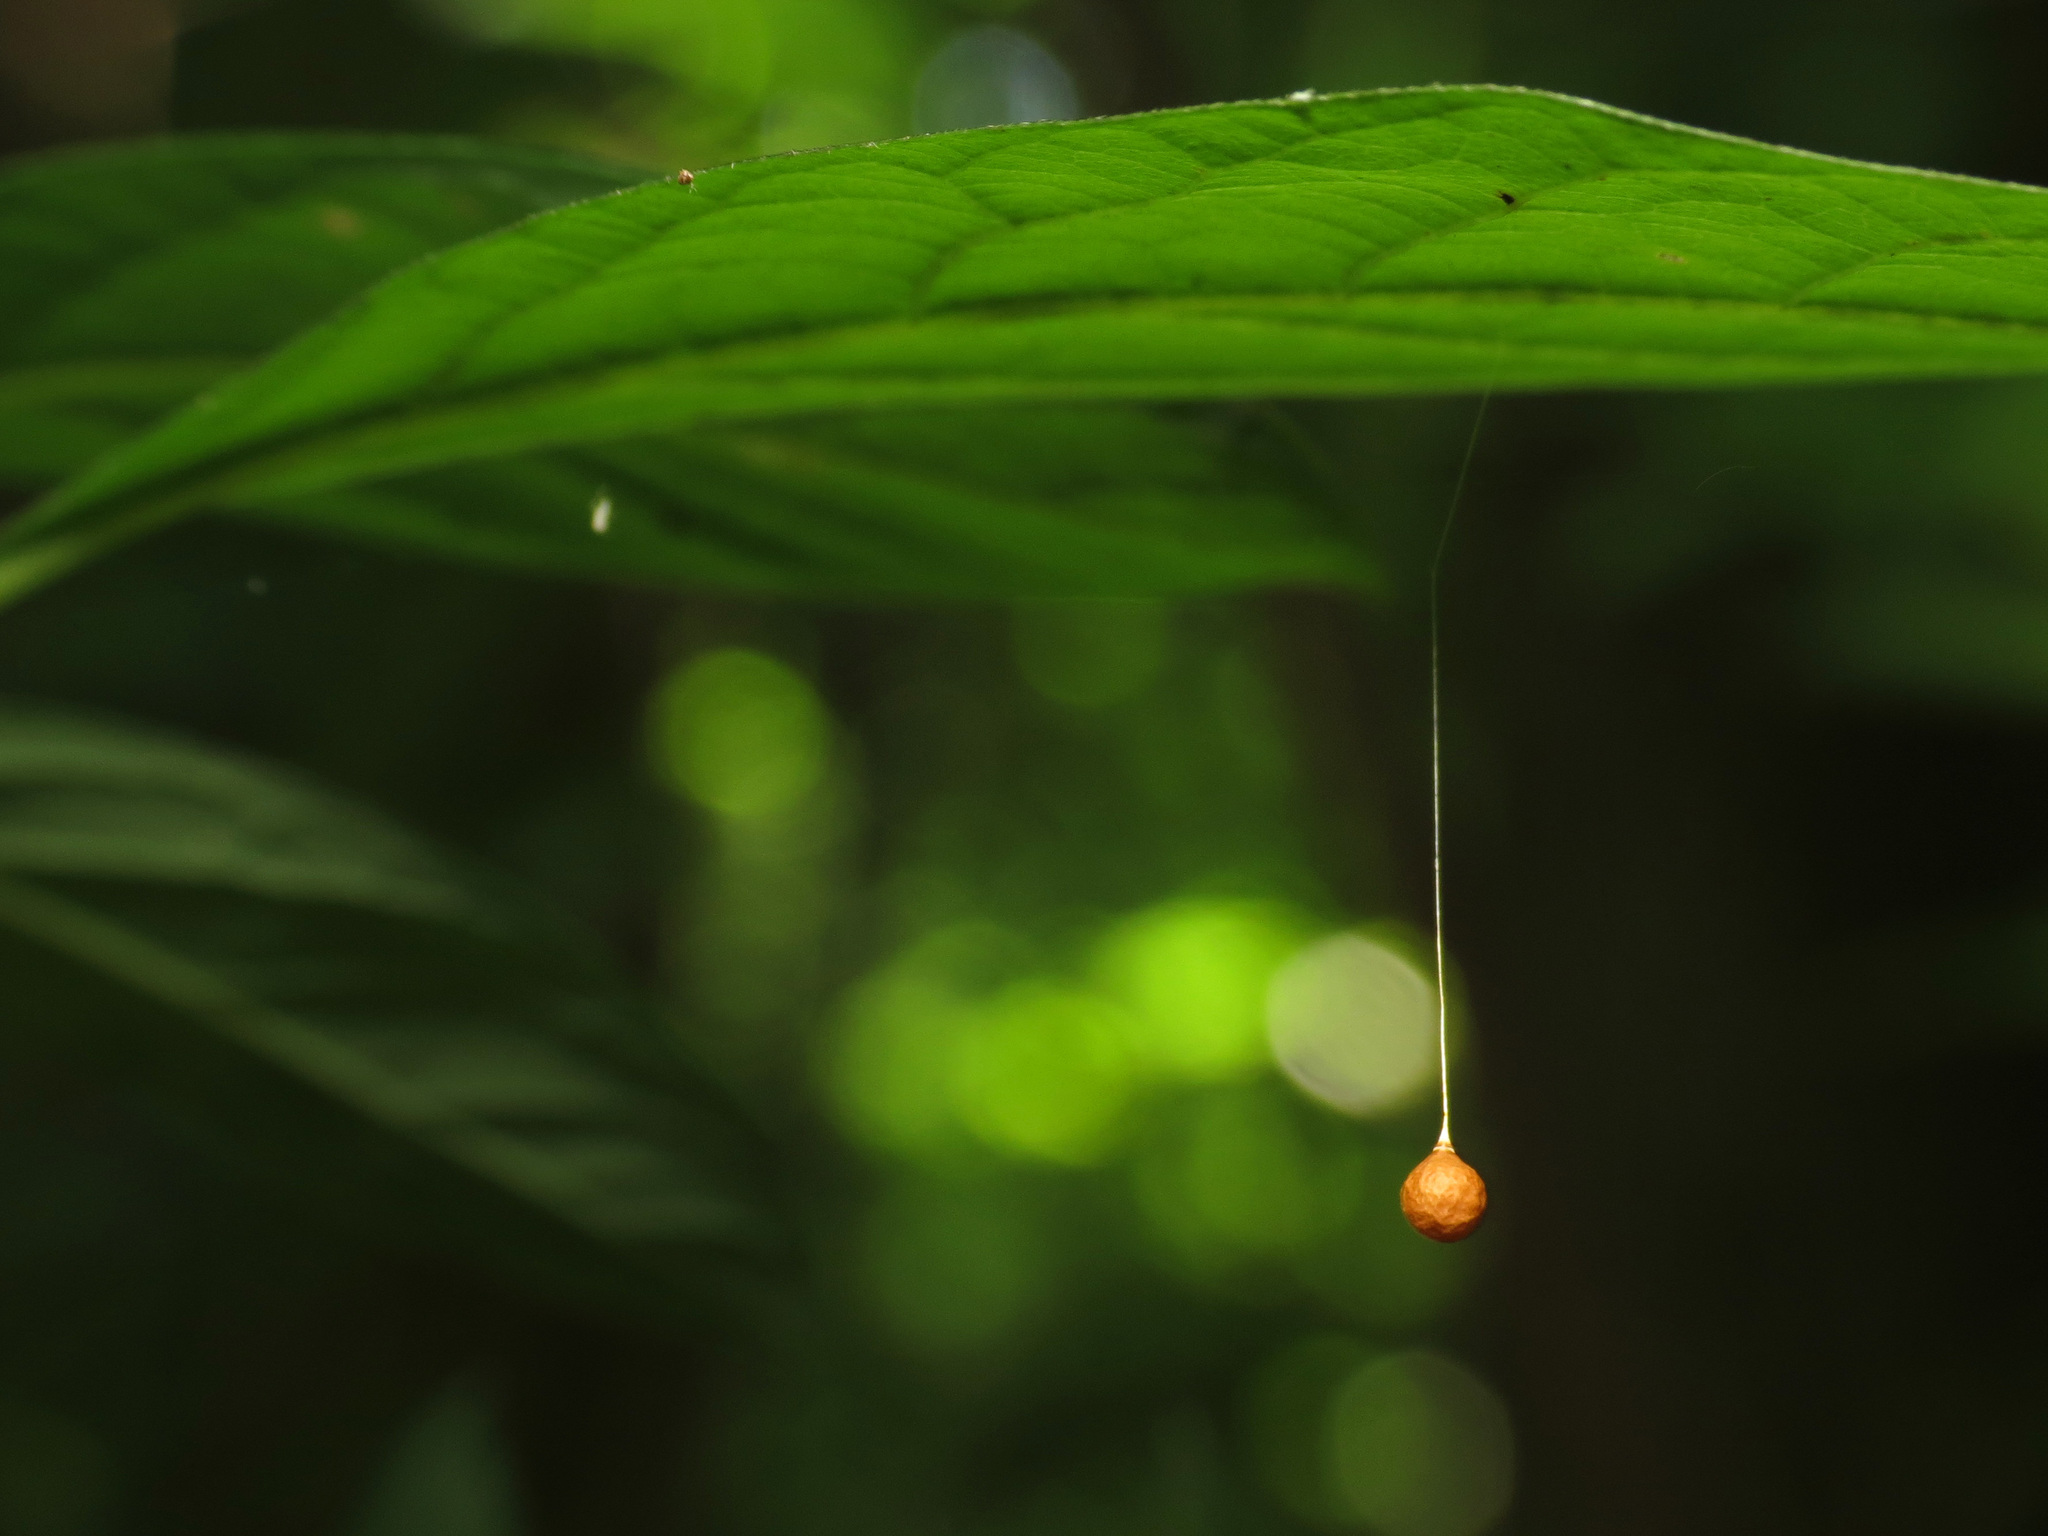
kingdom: Animalia
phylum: Arthropoda
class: Arachnida
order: Araneae
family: Theridiosomatidae
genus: Theridiosoma
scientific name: Theridiosoma gemmosum
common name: Ray spider
